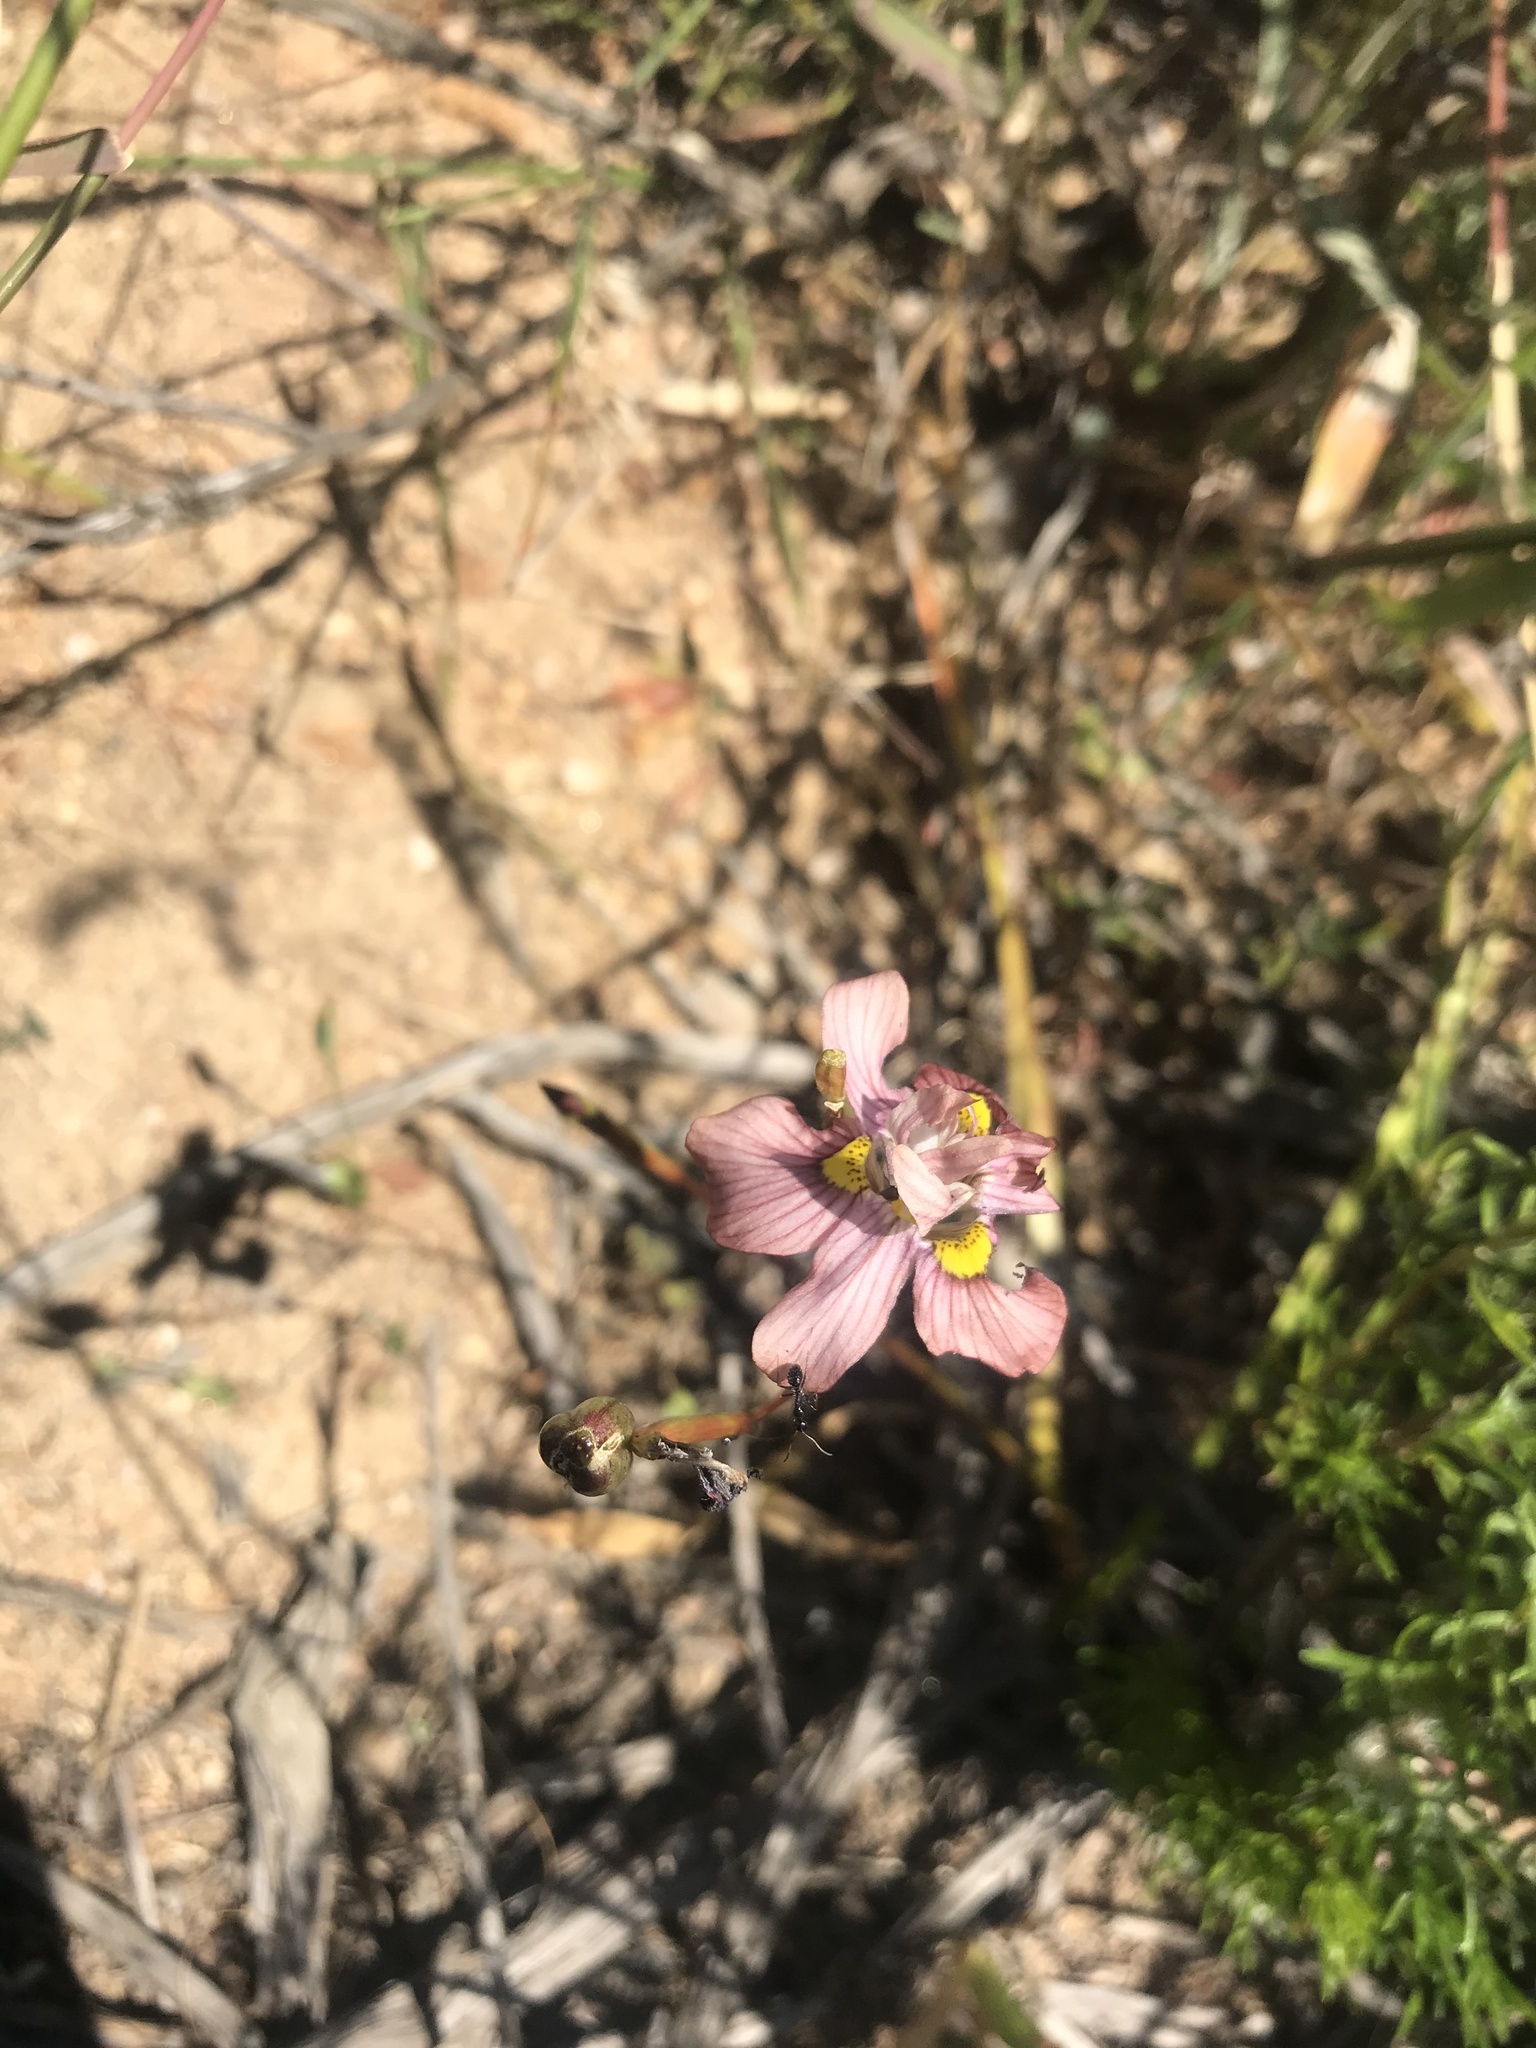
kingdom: Plantae
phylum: Tracheophyta
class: Liliopsida
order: Asparagales
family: Iridaceae
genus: Moraea
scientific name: Moraea gawleri
